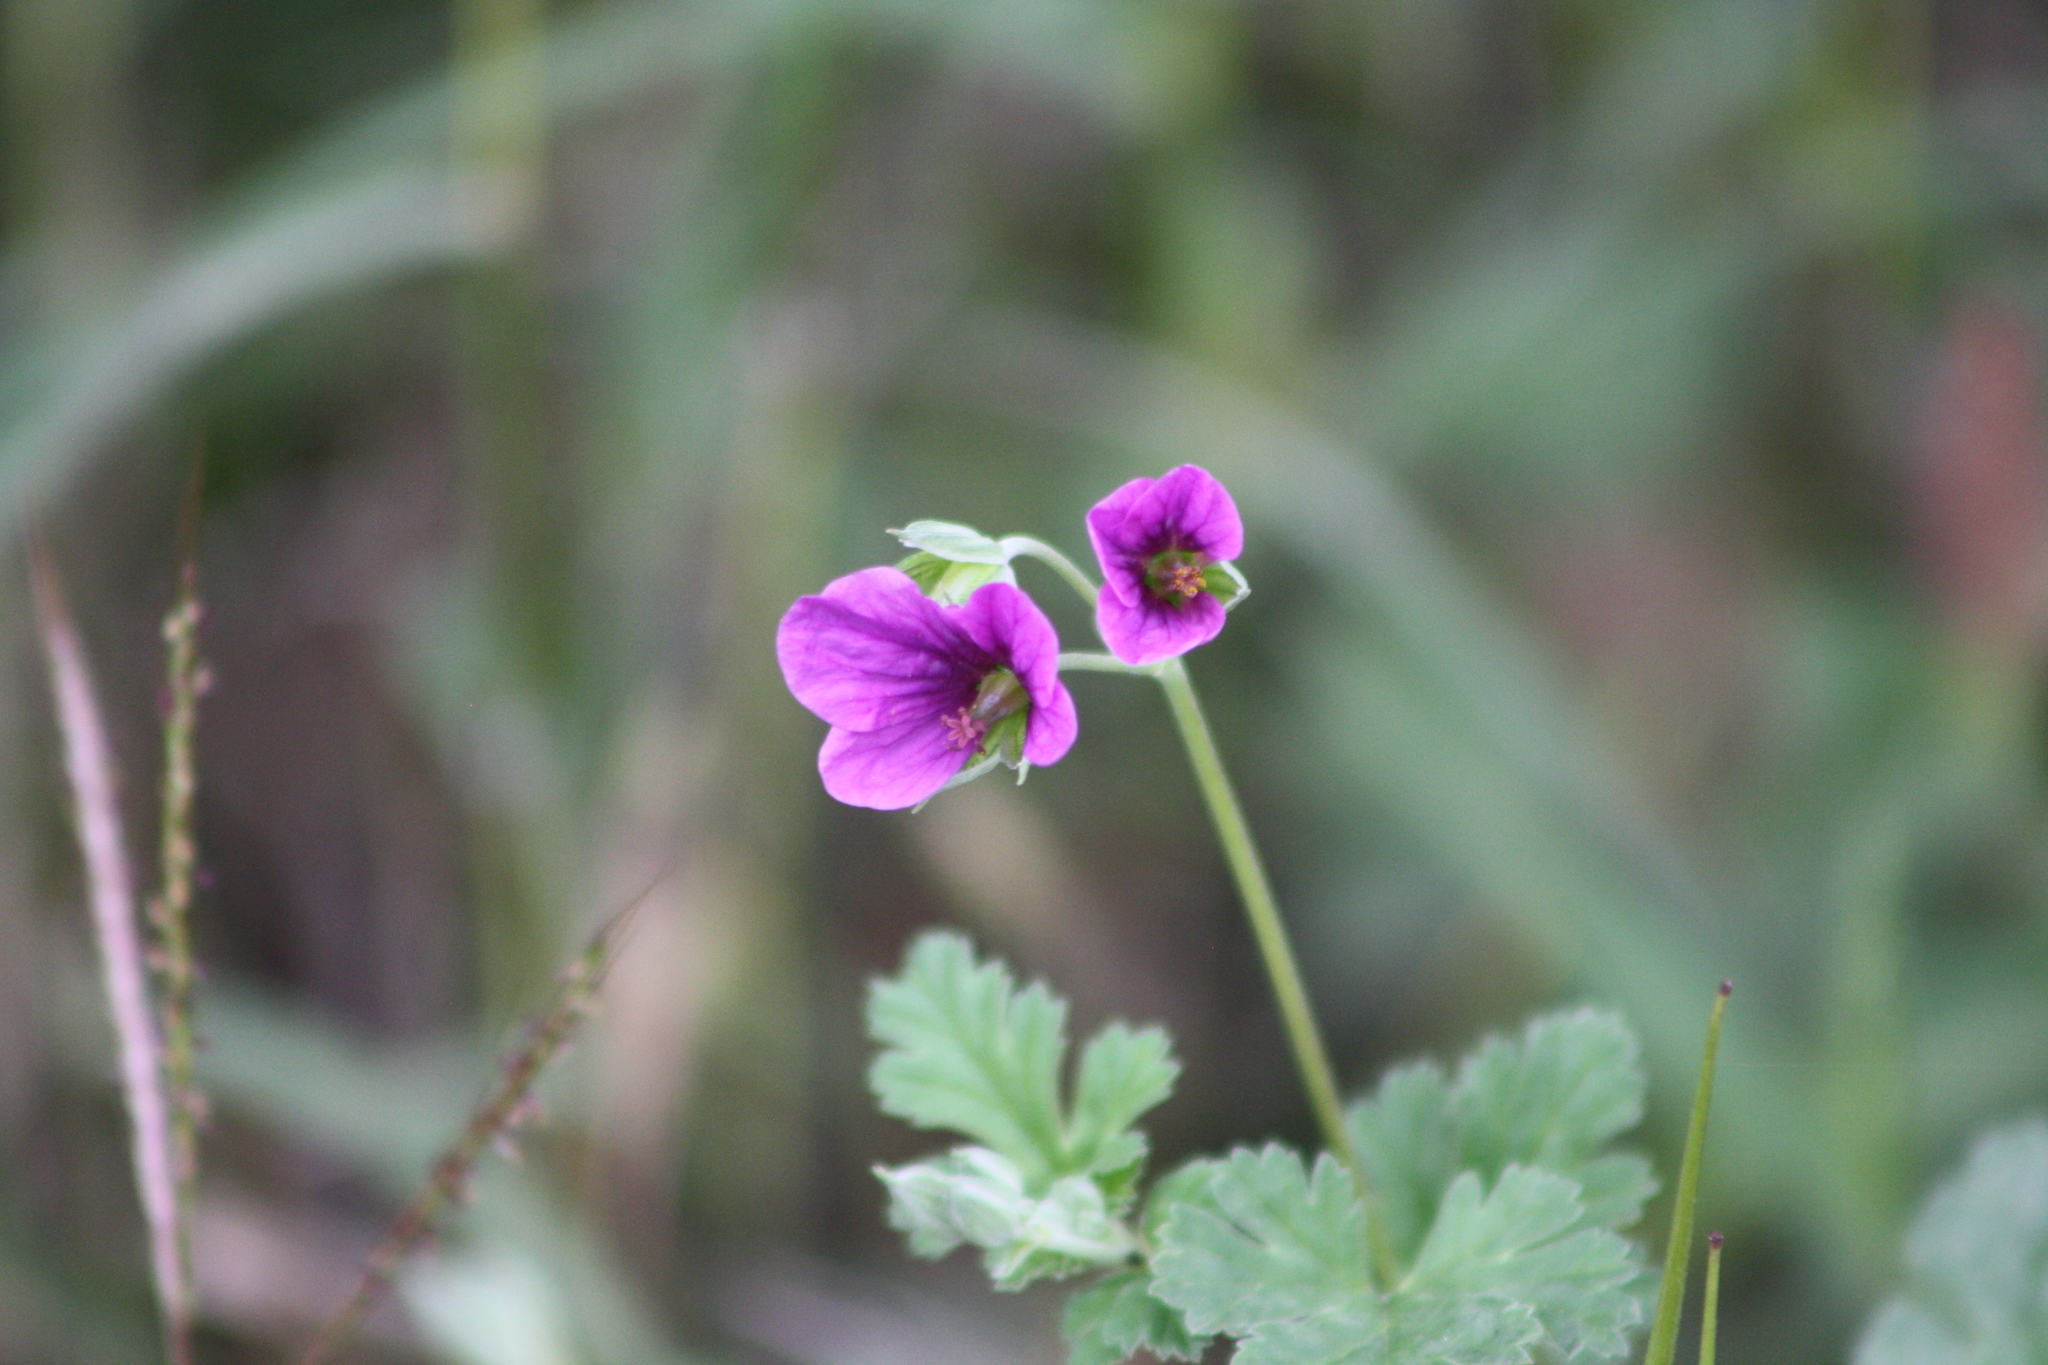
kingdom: Plantae
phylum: Tracheophyta
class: Magnoliopsida
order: Geraniales
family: Geraniaceae
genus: Erodium
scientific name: Erodium texanum
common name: Texas stork's-bill
